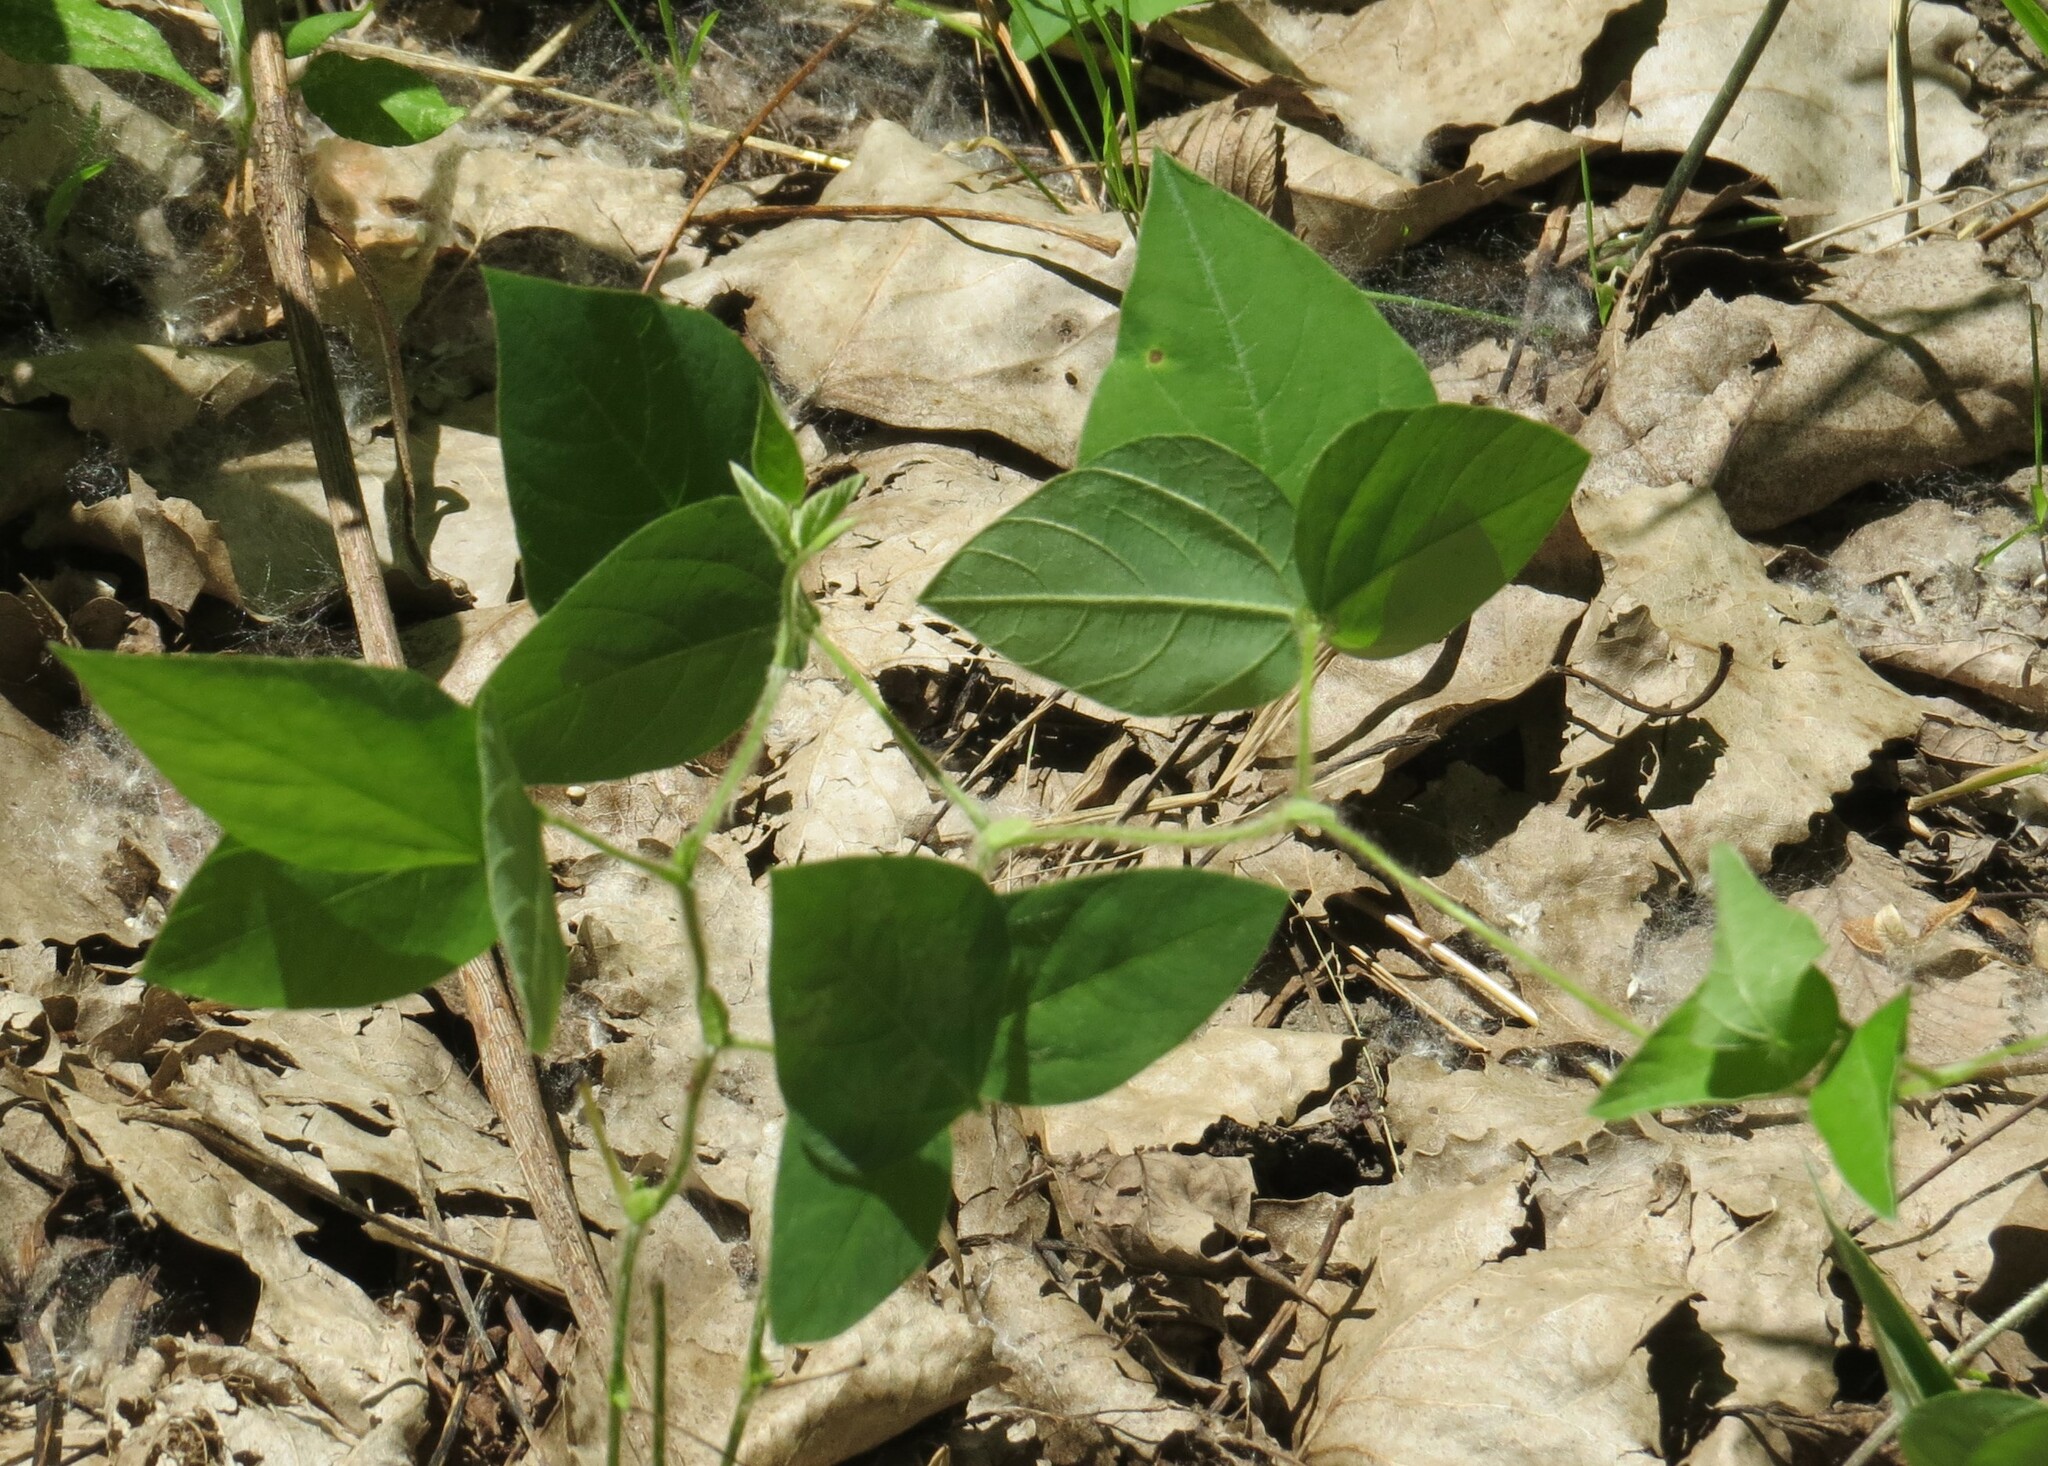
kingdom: Plantae
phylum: Tracheophyta
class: Magnoliopsida
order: Fabales
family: Fabaceae
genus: Amphicarpaea
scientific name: Amphicarpaea bracteata
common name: American hog peanut
